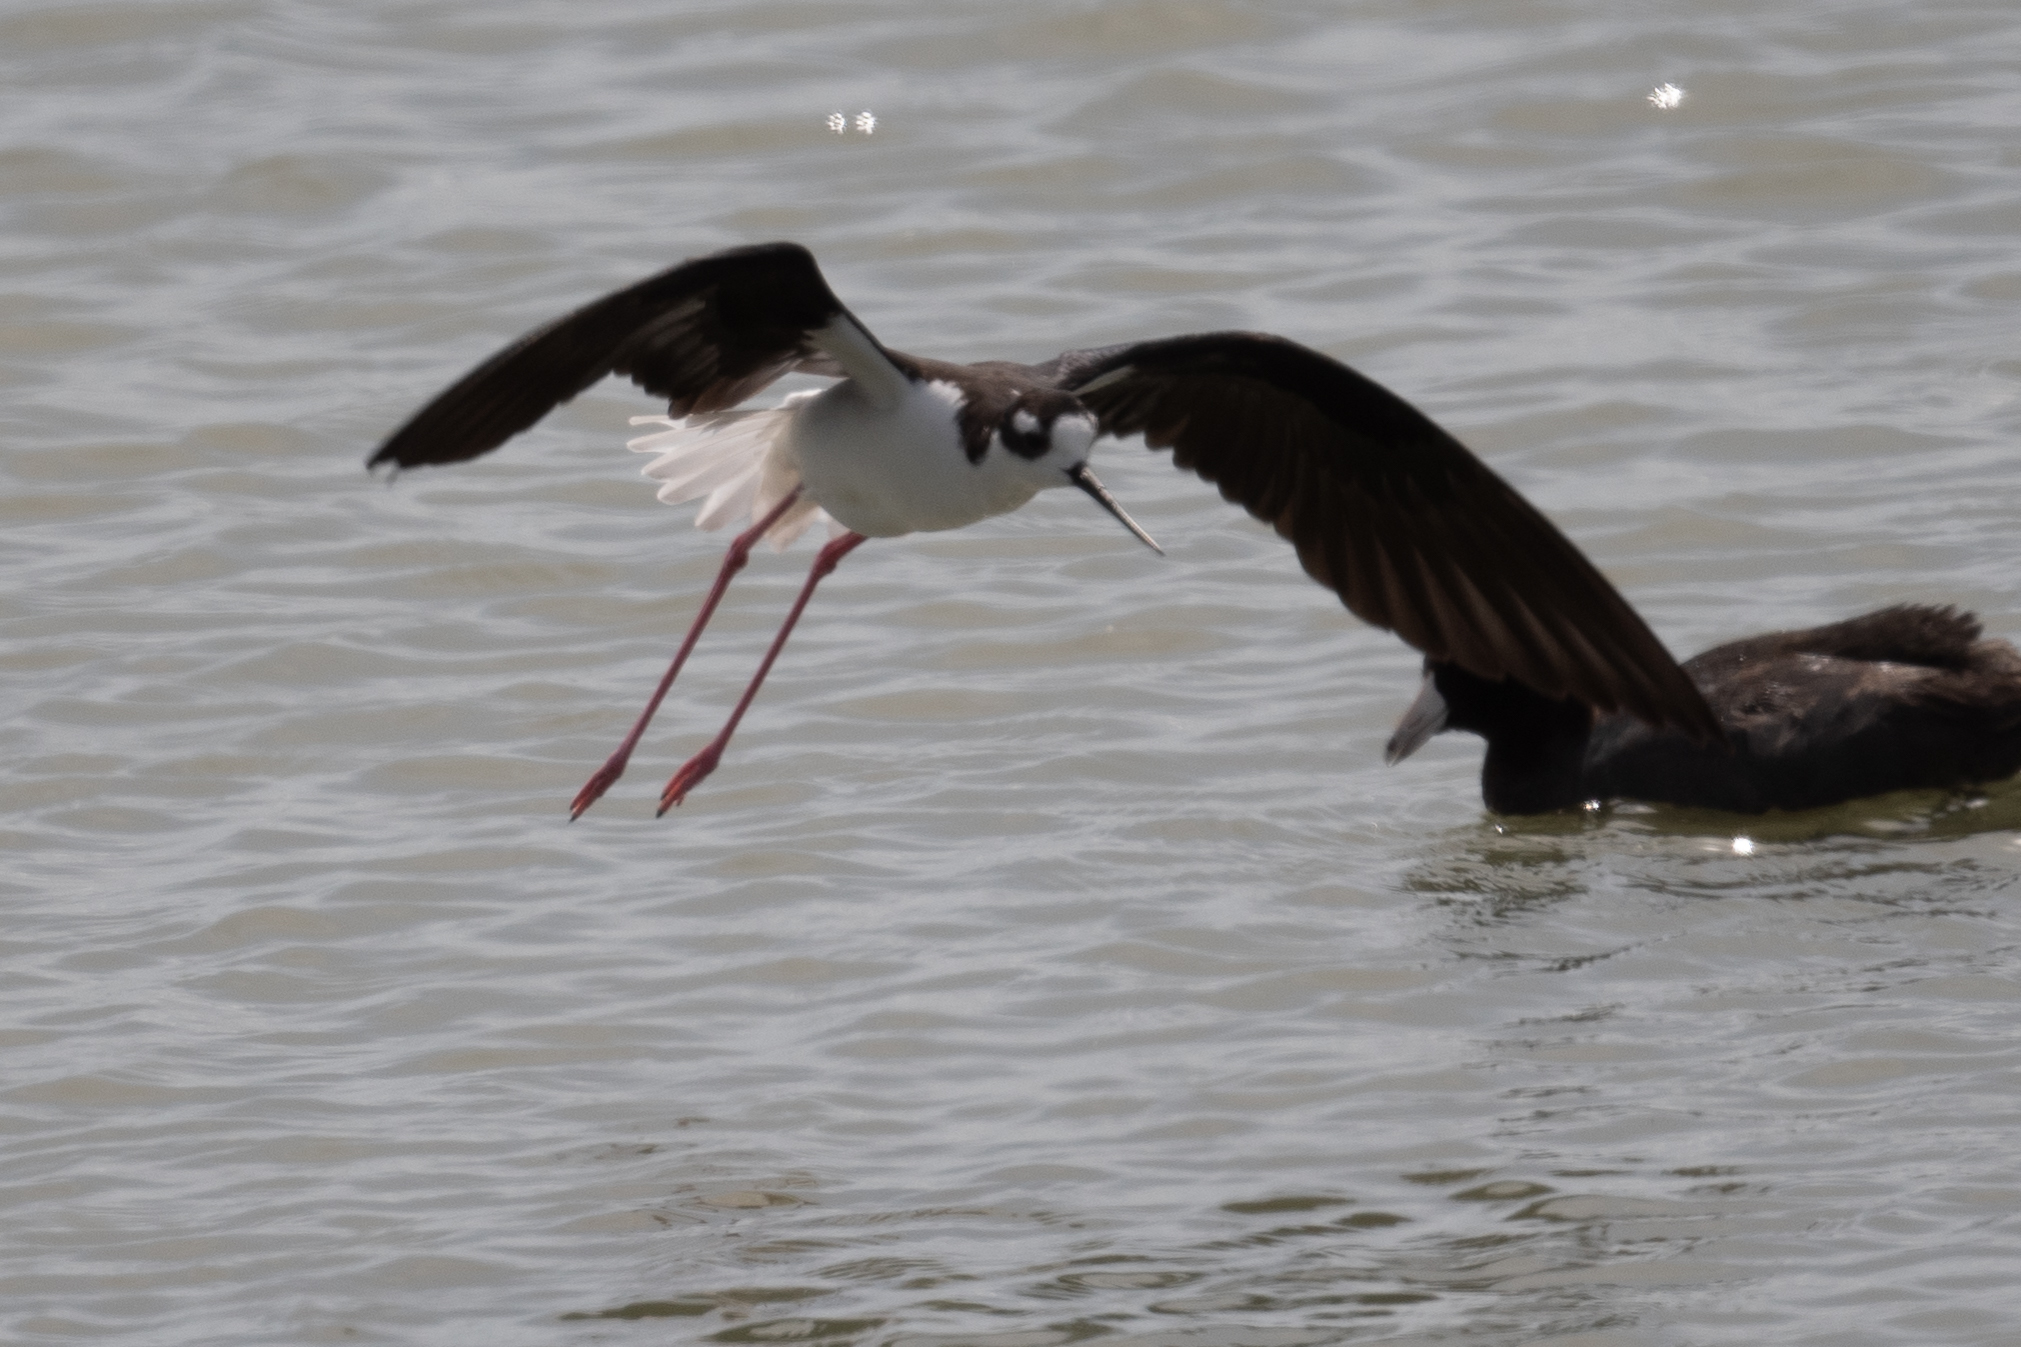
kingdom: Animalia
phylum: Chordata
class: Aves
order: Charadriiformes
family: Recurvirostridae
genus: Himantopus
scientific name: Himantopus mexicanus
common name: Black-necked stilt
